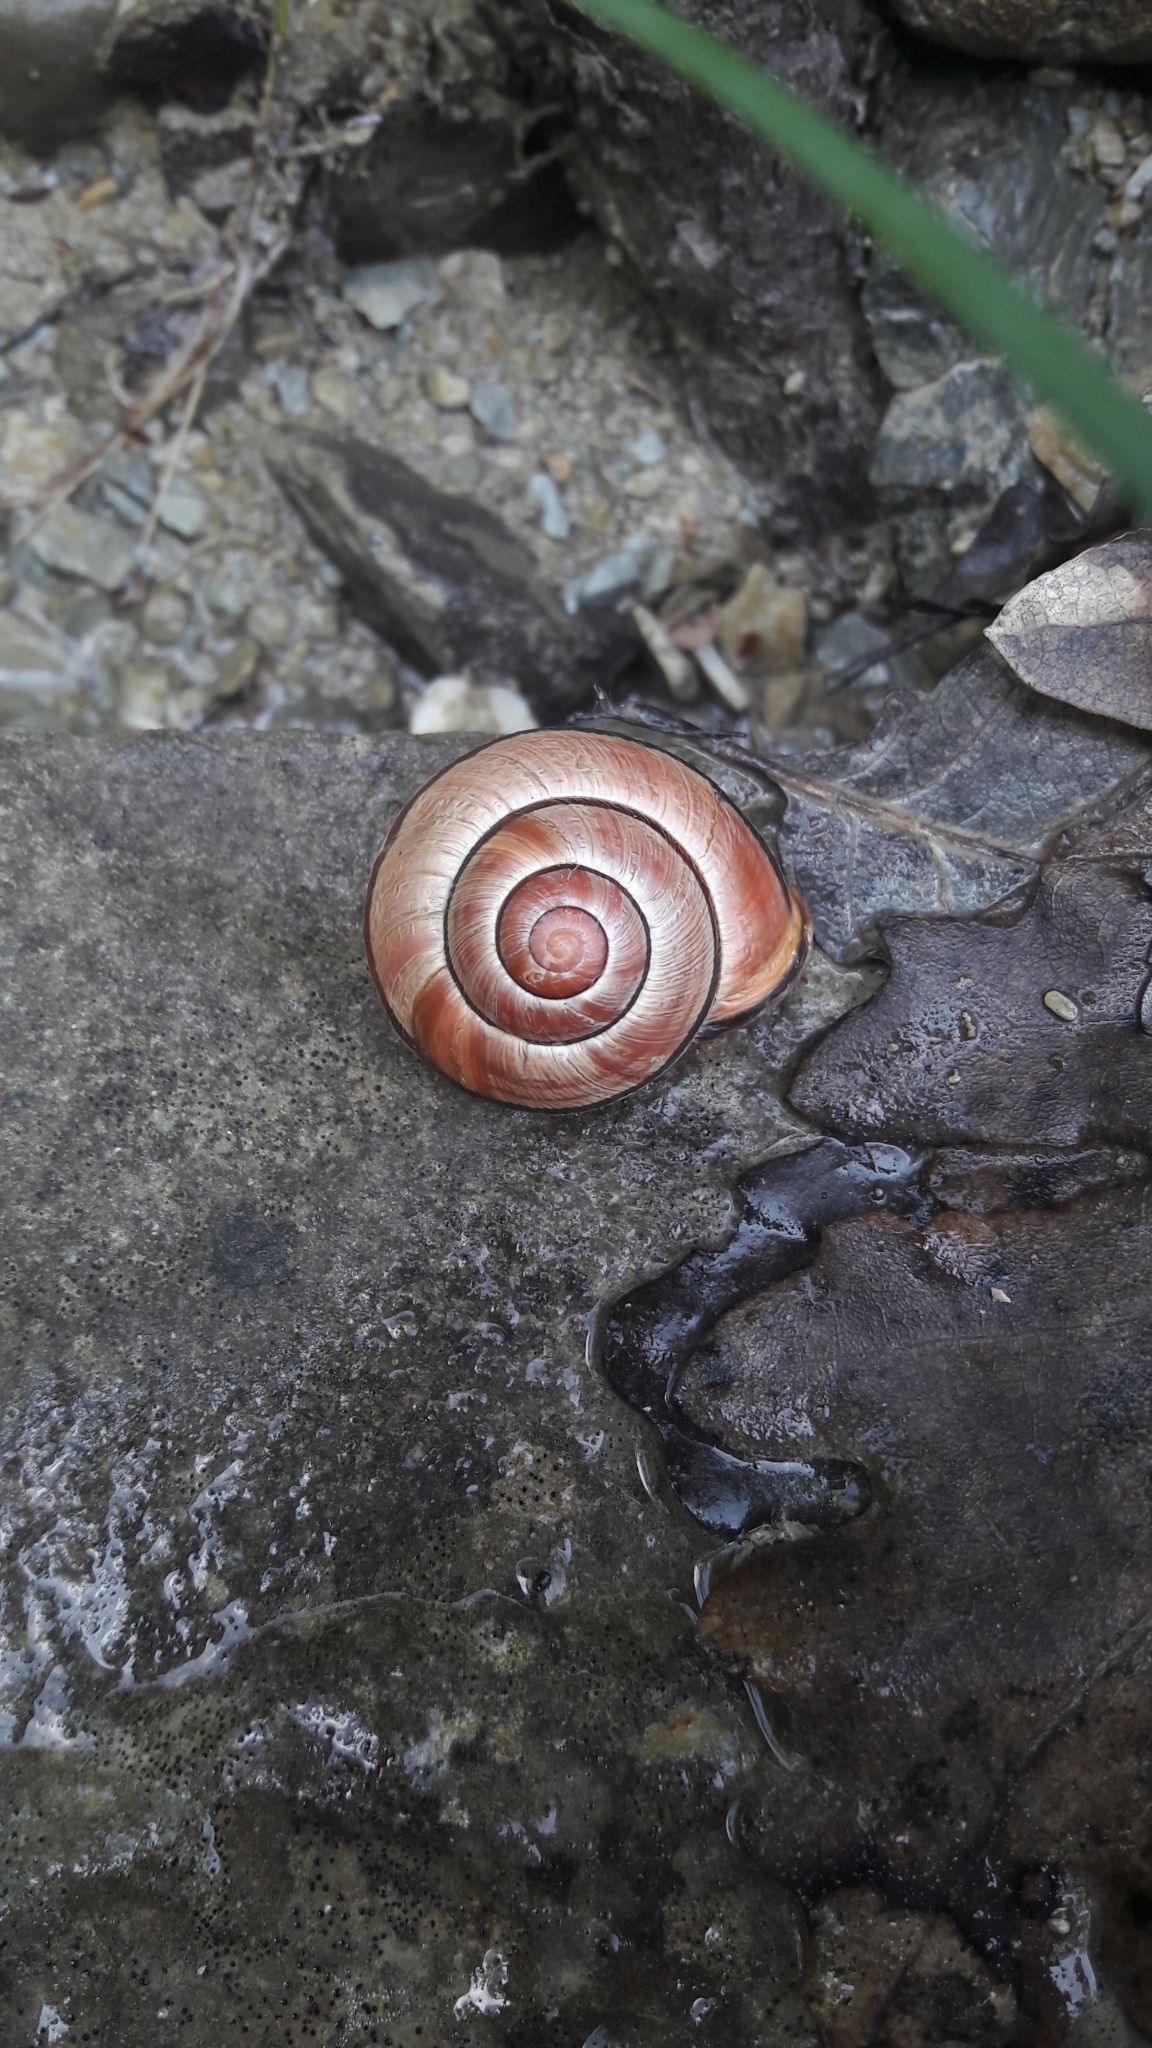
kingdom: Animalia
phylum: Mollusca
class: Gastropoda
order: Stylommatophora
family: Helicidae
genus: Cepaea
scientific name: Cepaea nemoralis
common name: Grovesnail
